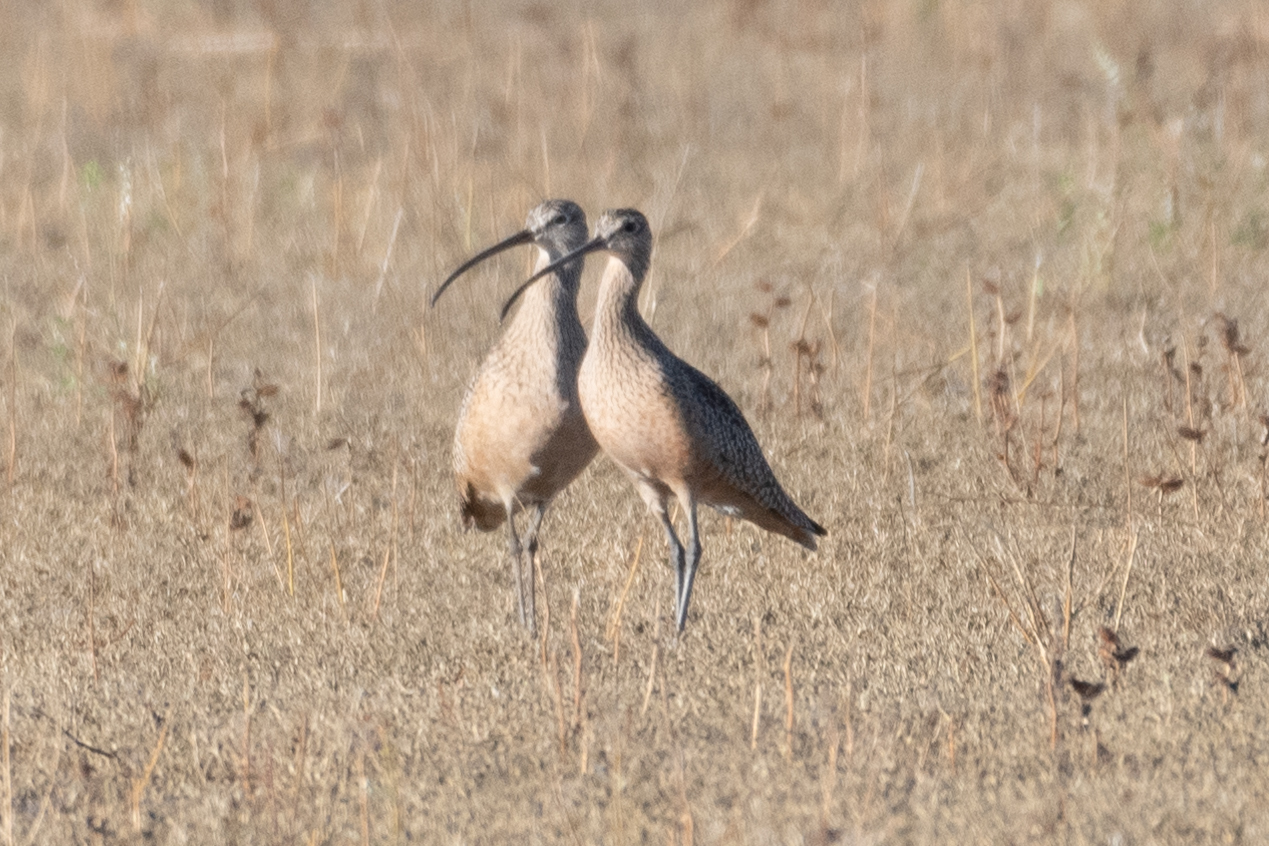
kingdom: Animalia
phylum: Chordata
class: Aves
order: Charadriiformes
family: Scolopacidae
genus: Numenius
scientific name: Numenius americanus
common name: Long-billed curlew
